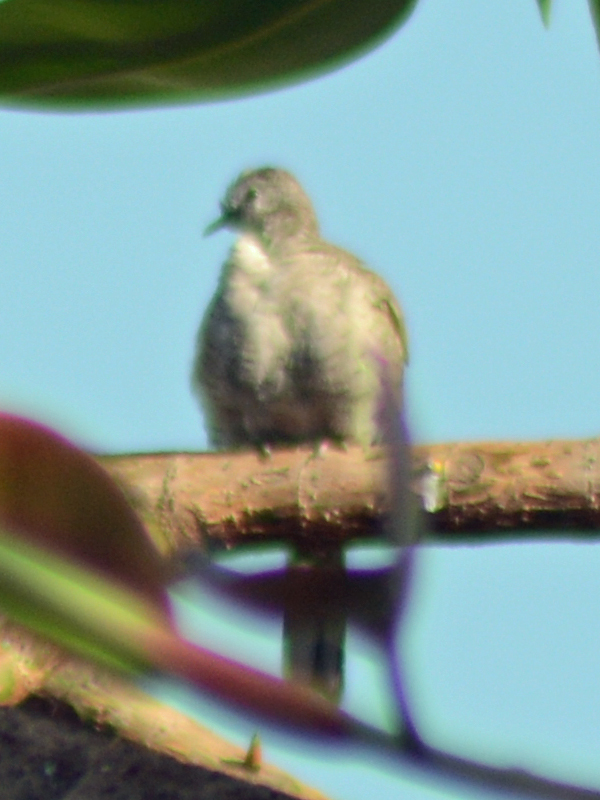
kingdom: Animalia
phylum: Chordata
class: Aves
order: Columbiformes
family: Columbidae
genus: Columbina
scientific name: Columbina inca
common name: Inca dove
